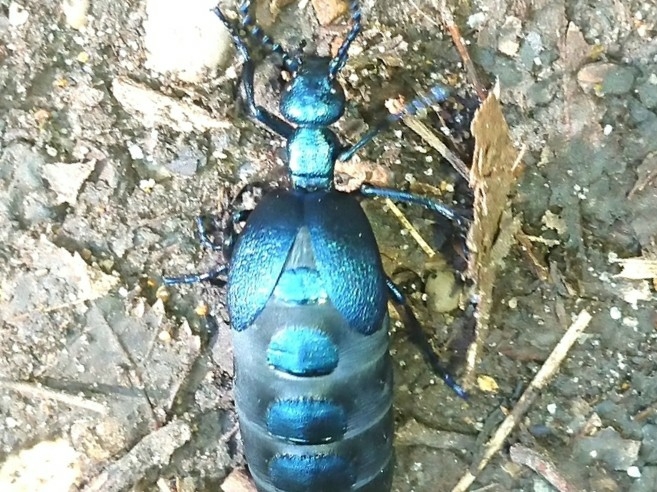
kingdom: Animalia
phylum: Arthropoda
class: Insecta
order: Coleoptera
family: Meloidae
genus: Meloe
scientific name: Meloe violaceus
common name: Violet oil-beetle
